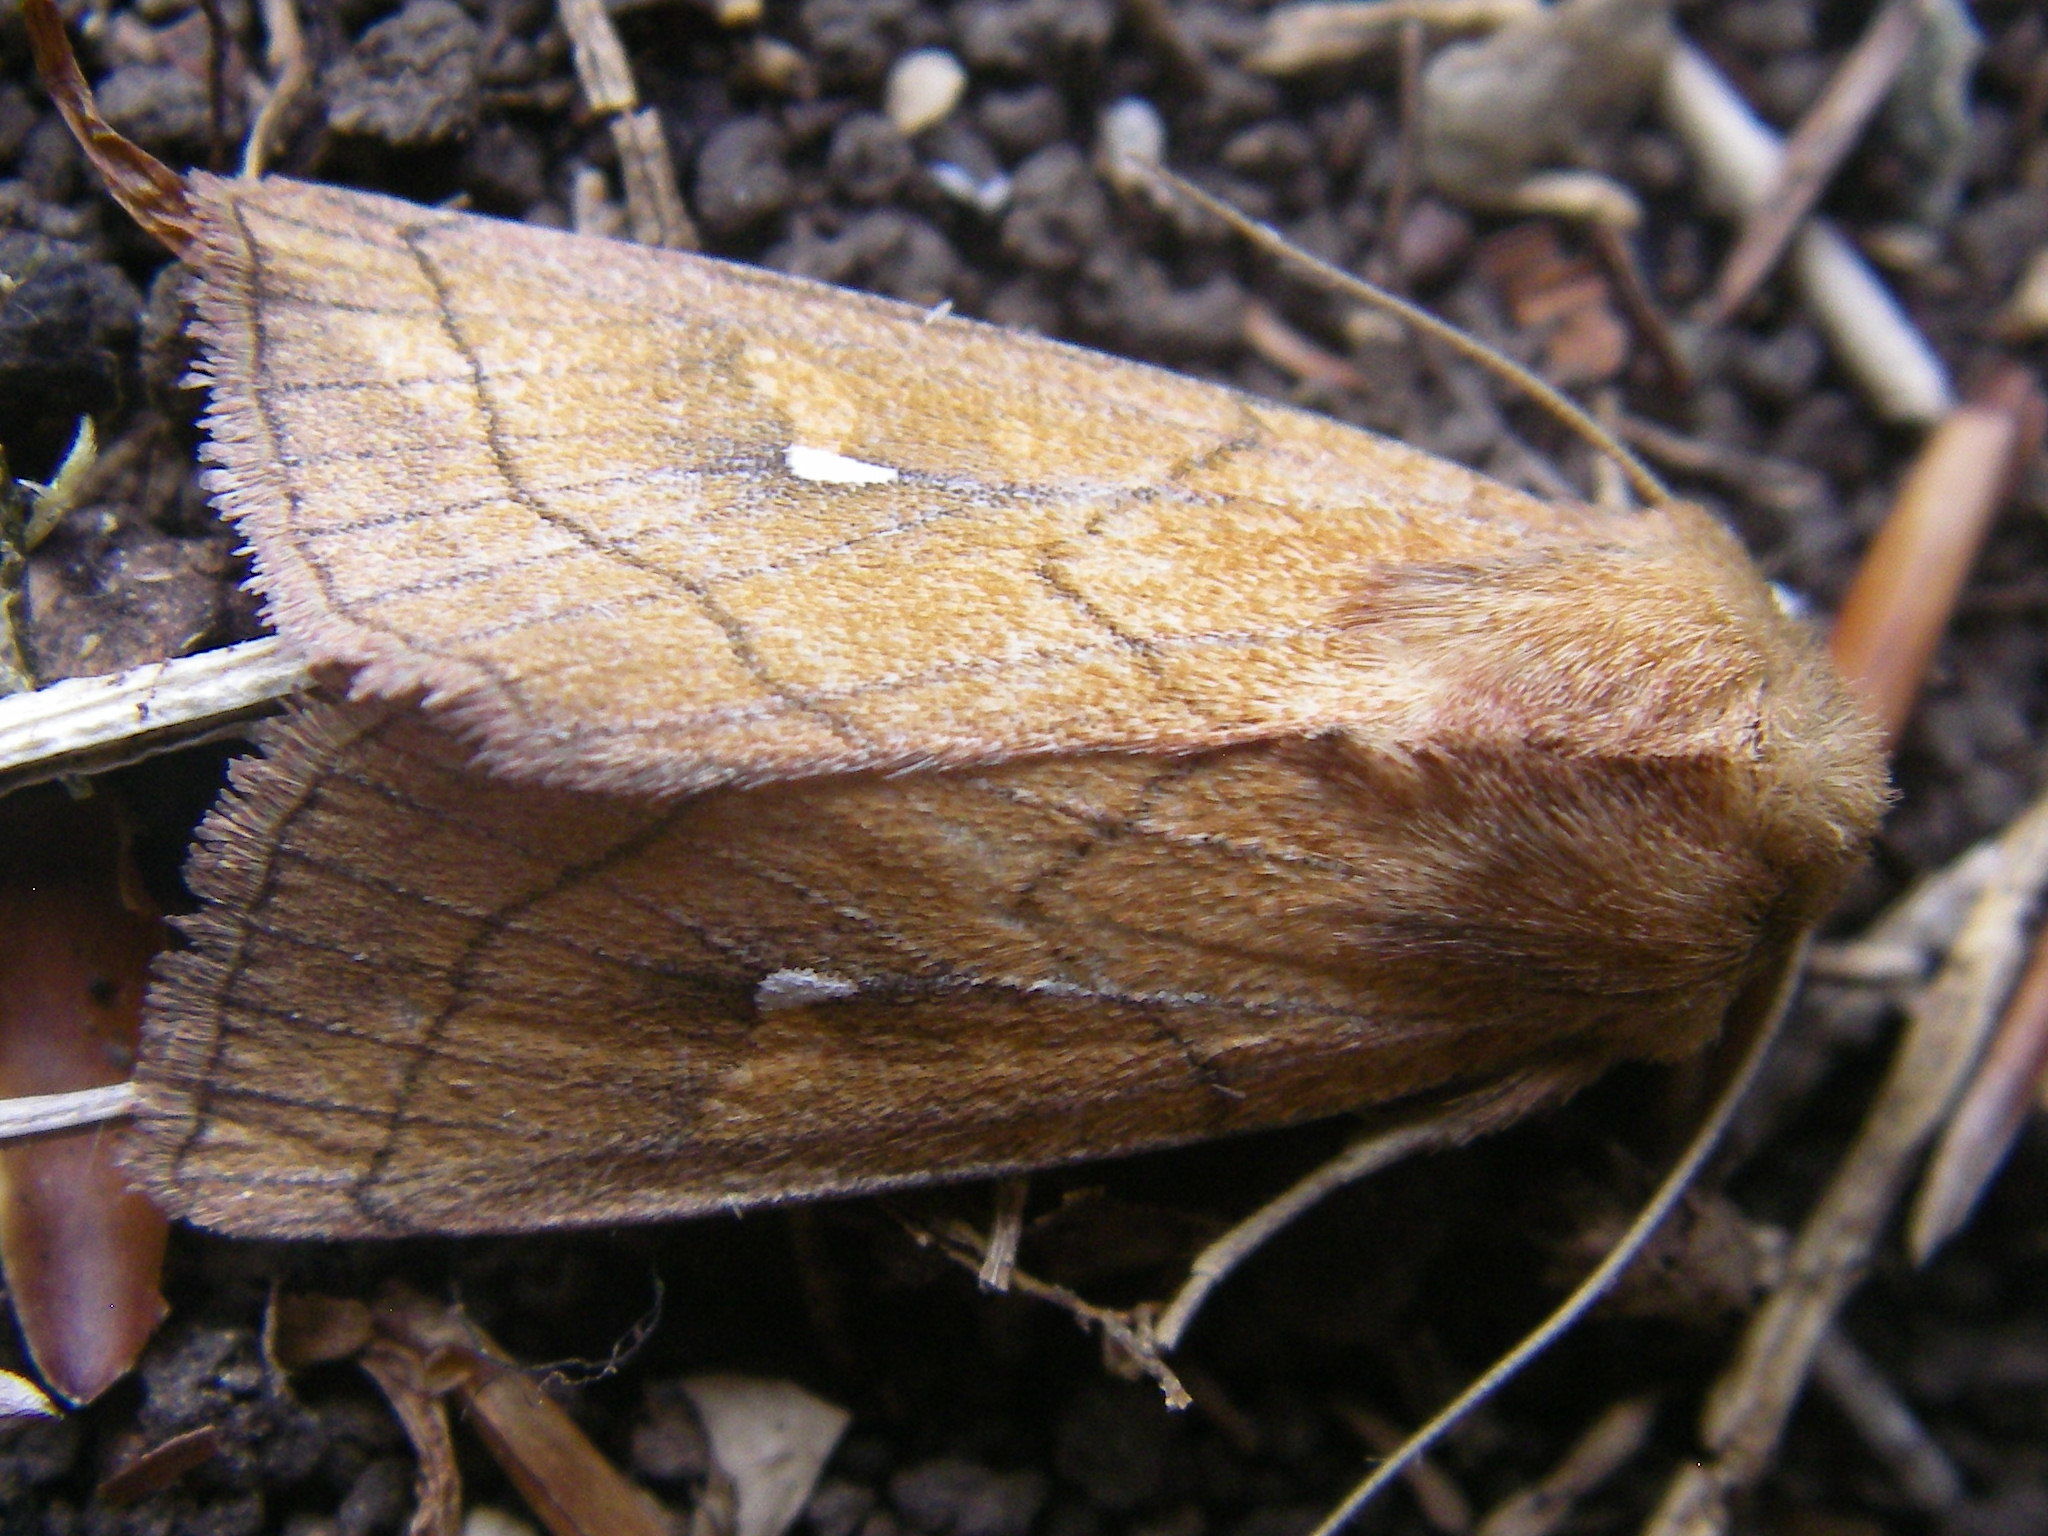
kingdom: Animalia
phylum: Arthropoda
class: Insecta
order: Lepidoptera
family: Noctuidae
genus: Mythimna
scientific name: Mythimna conigera
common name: Brown-line bright-eye
